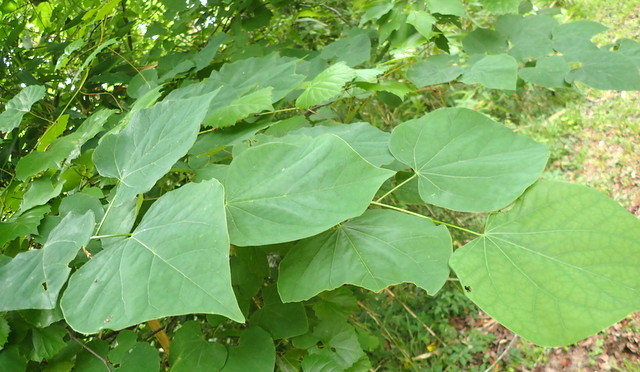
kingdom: Plantae
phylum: Tracheophyta
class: Magnoliopsida
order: Fabales
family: Fabaceae
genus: Cercis
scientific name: Cercis canadensis
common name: Eastern redbud
